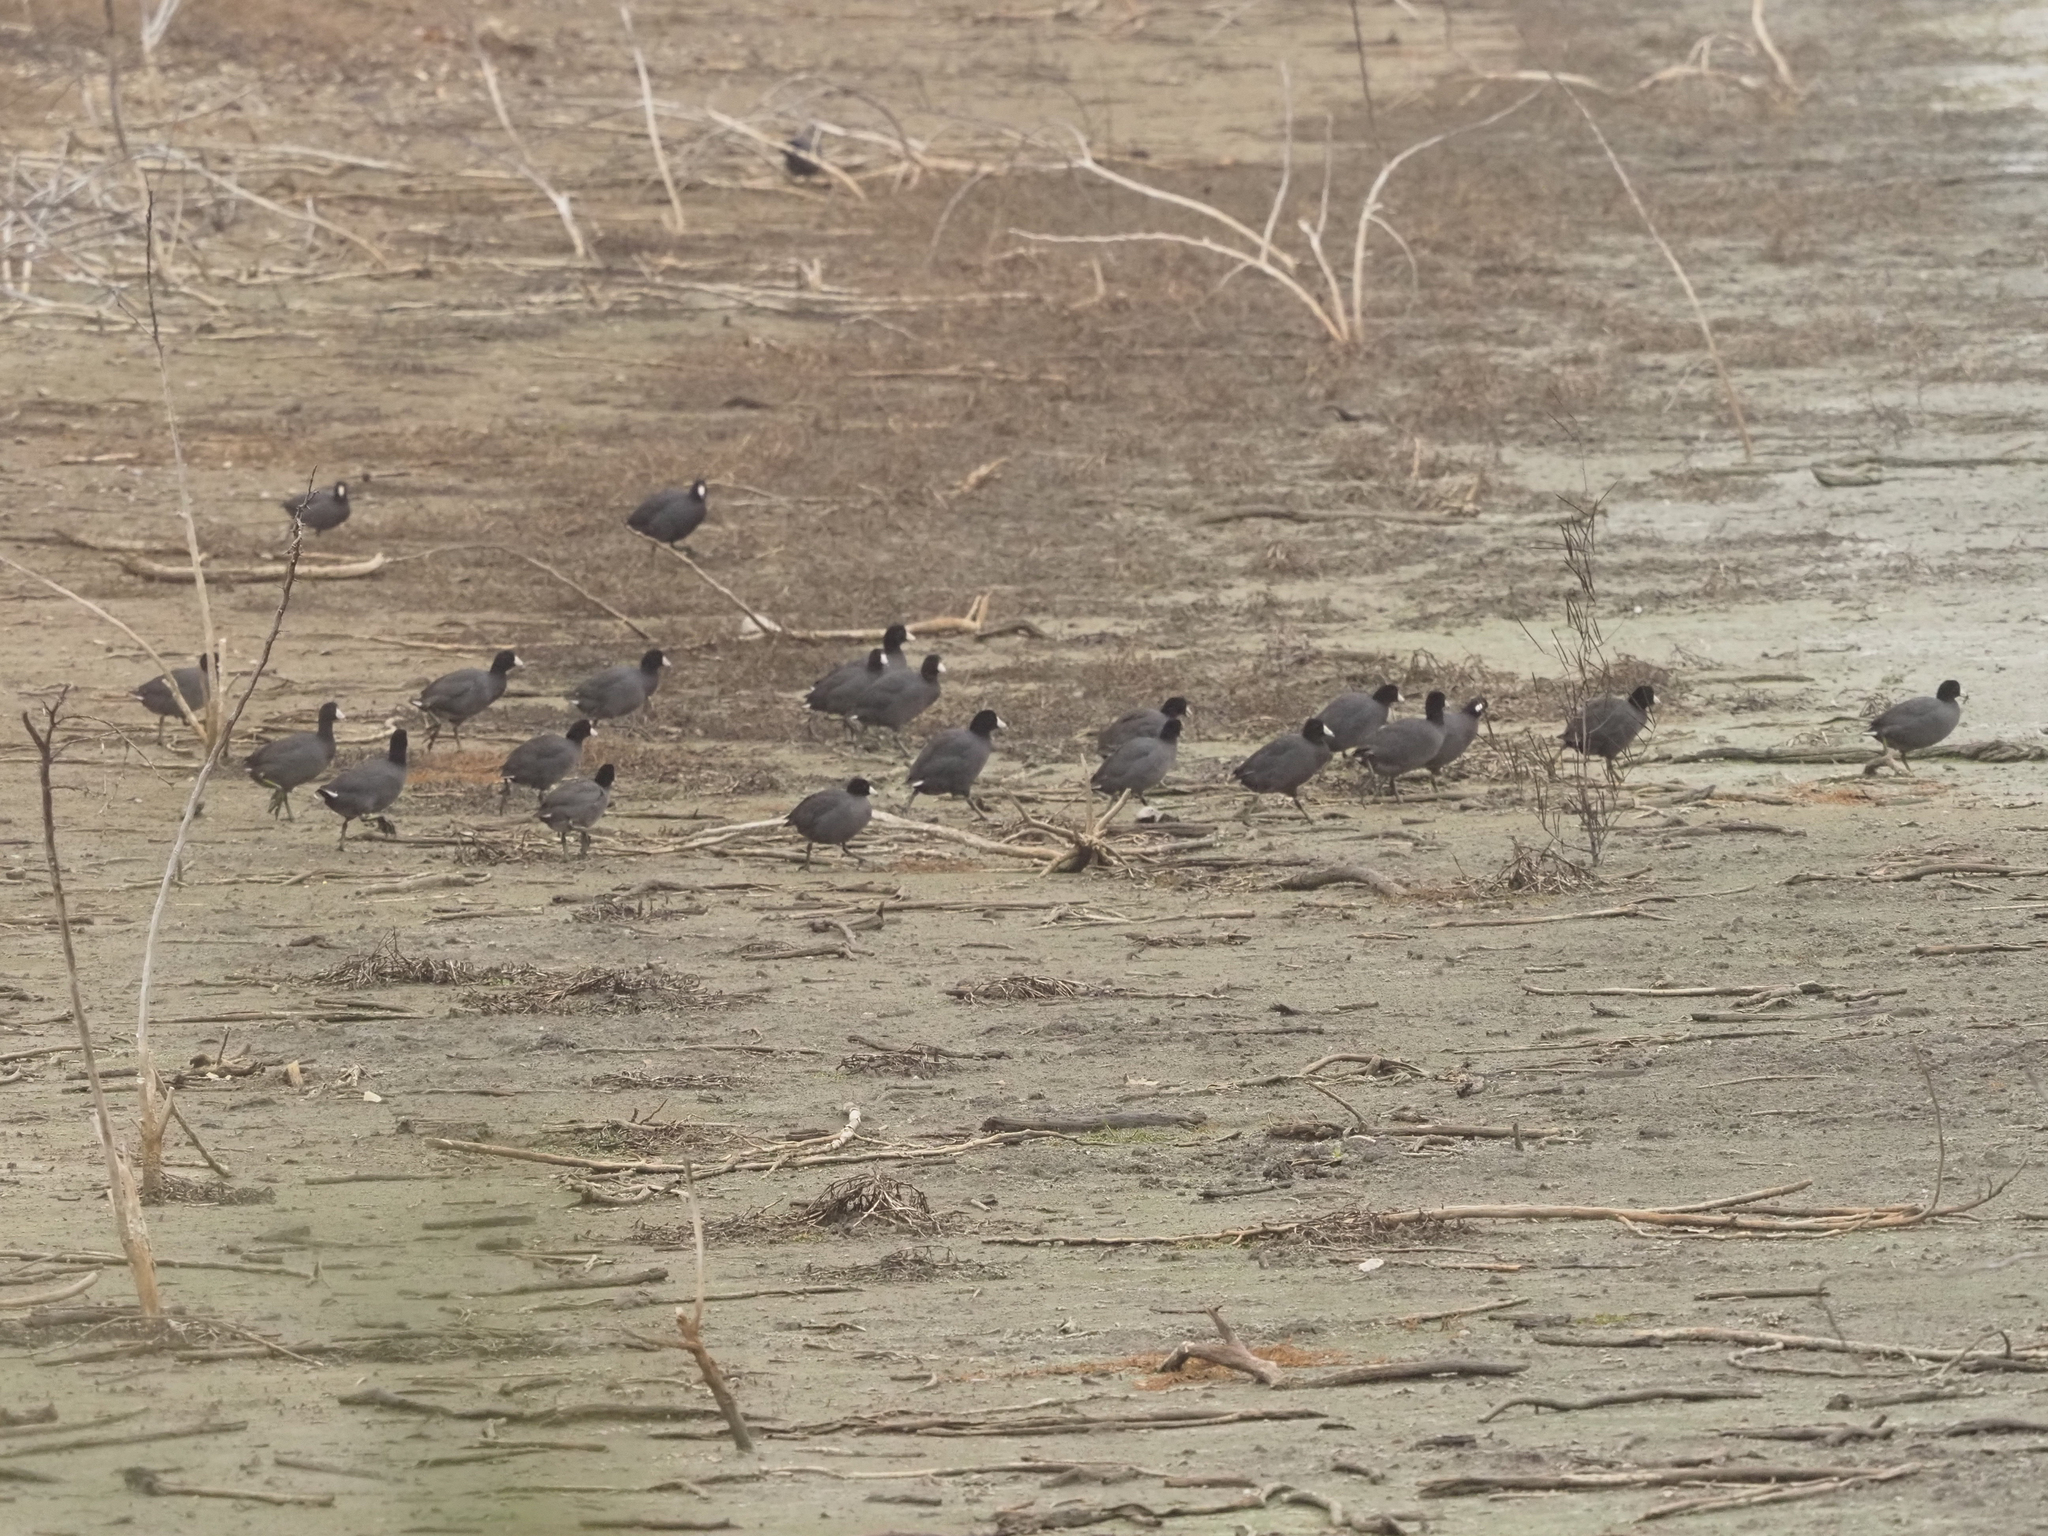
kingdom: Animalia
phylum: Chordata
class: Aves
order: Gruiformes
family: Rallidae
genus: Fulica
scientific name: Fulica americana
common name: American coot
